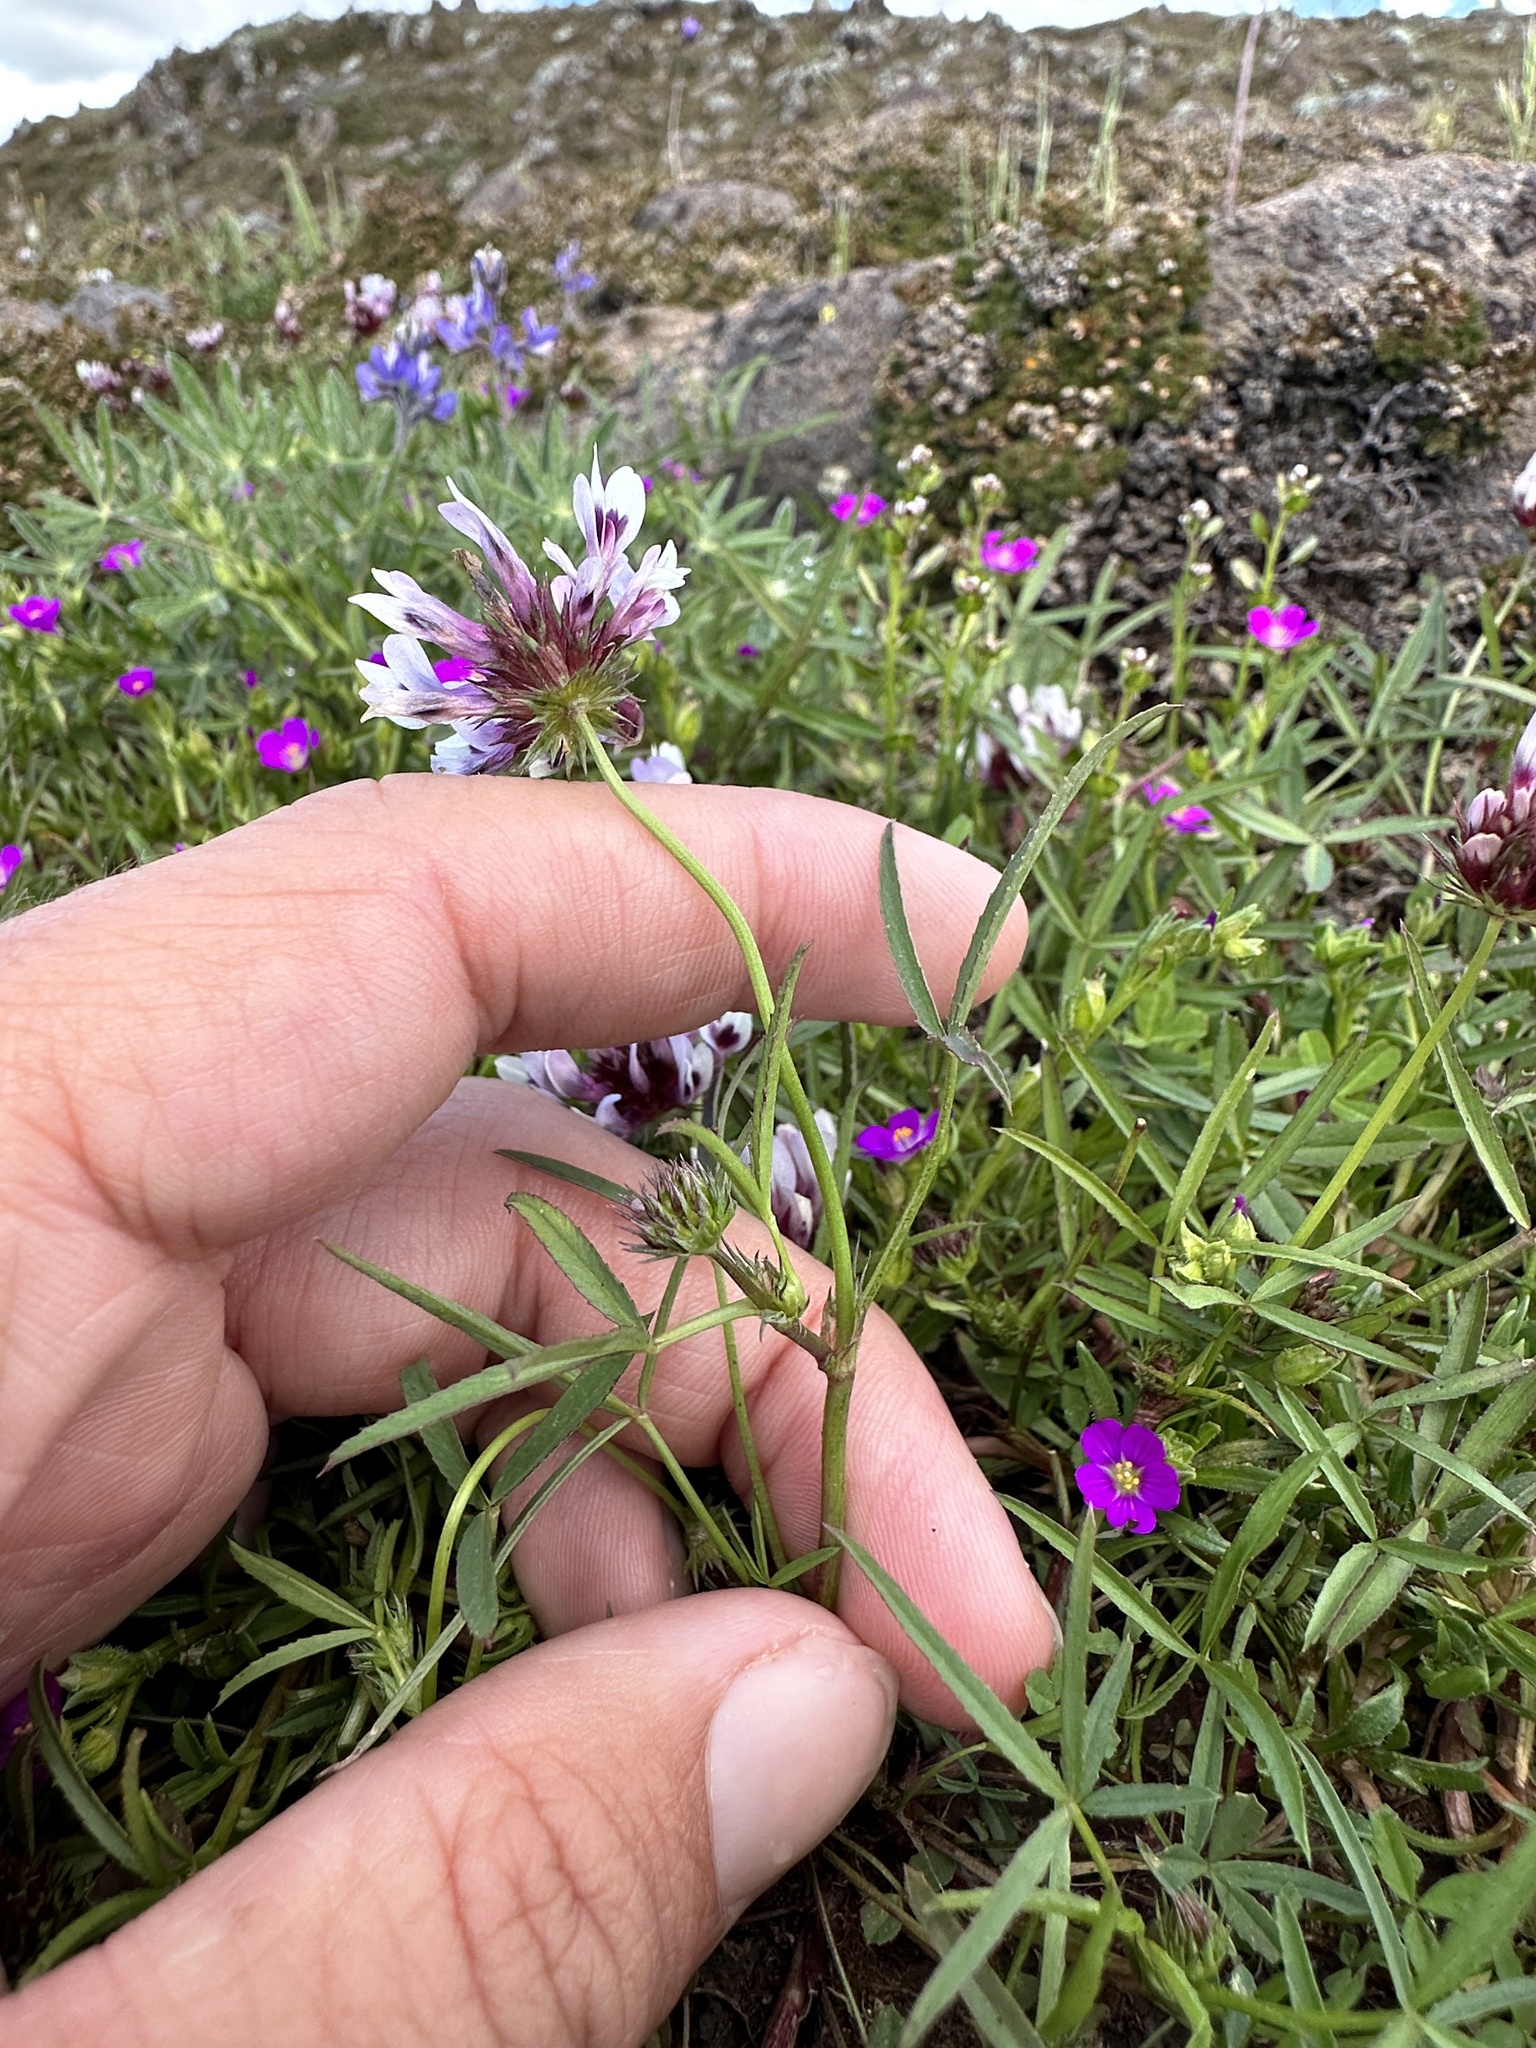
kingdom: Plantae
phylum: Tracheophyta
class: Magnoliopsida
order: Fabales
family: Fabaceae
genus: Trifolium
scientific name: Trifolium willdenovii
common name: Tomcat clover
